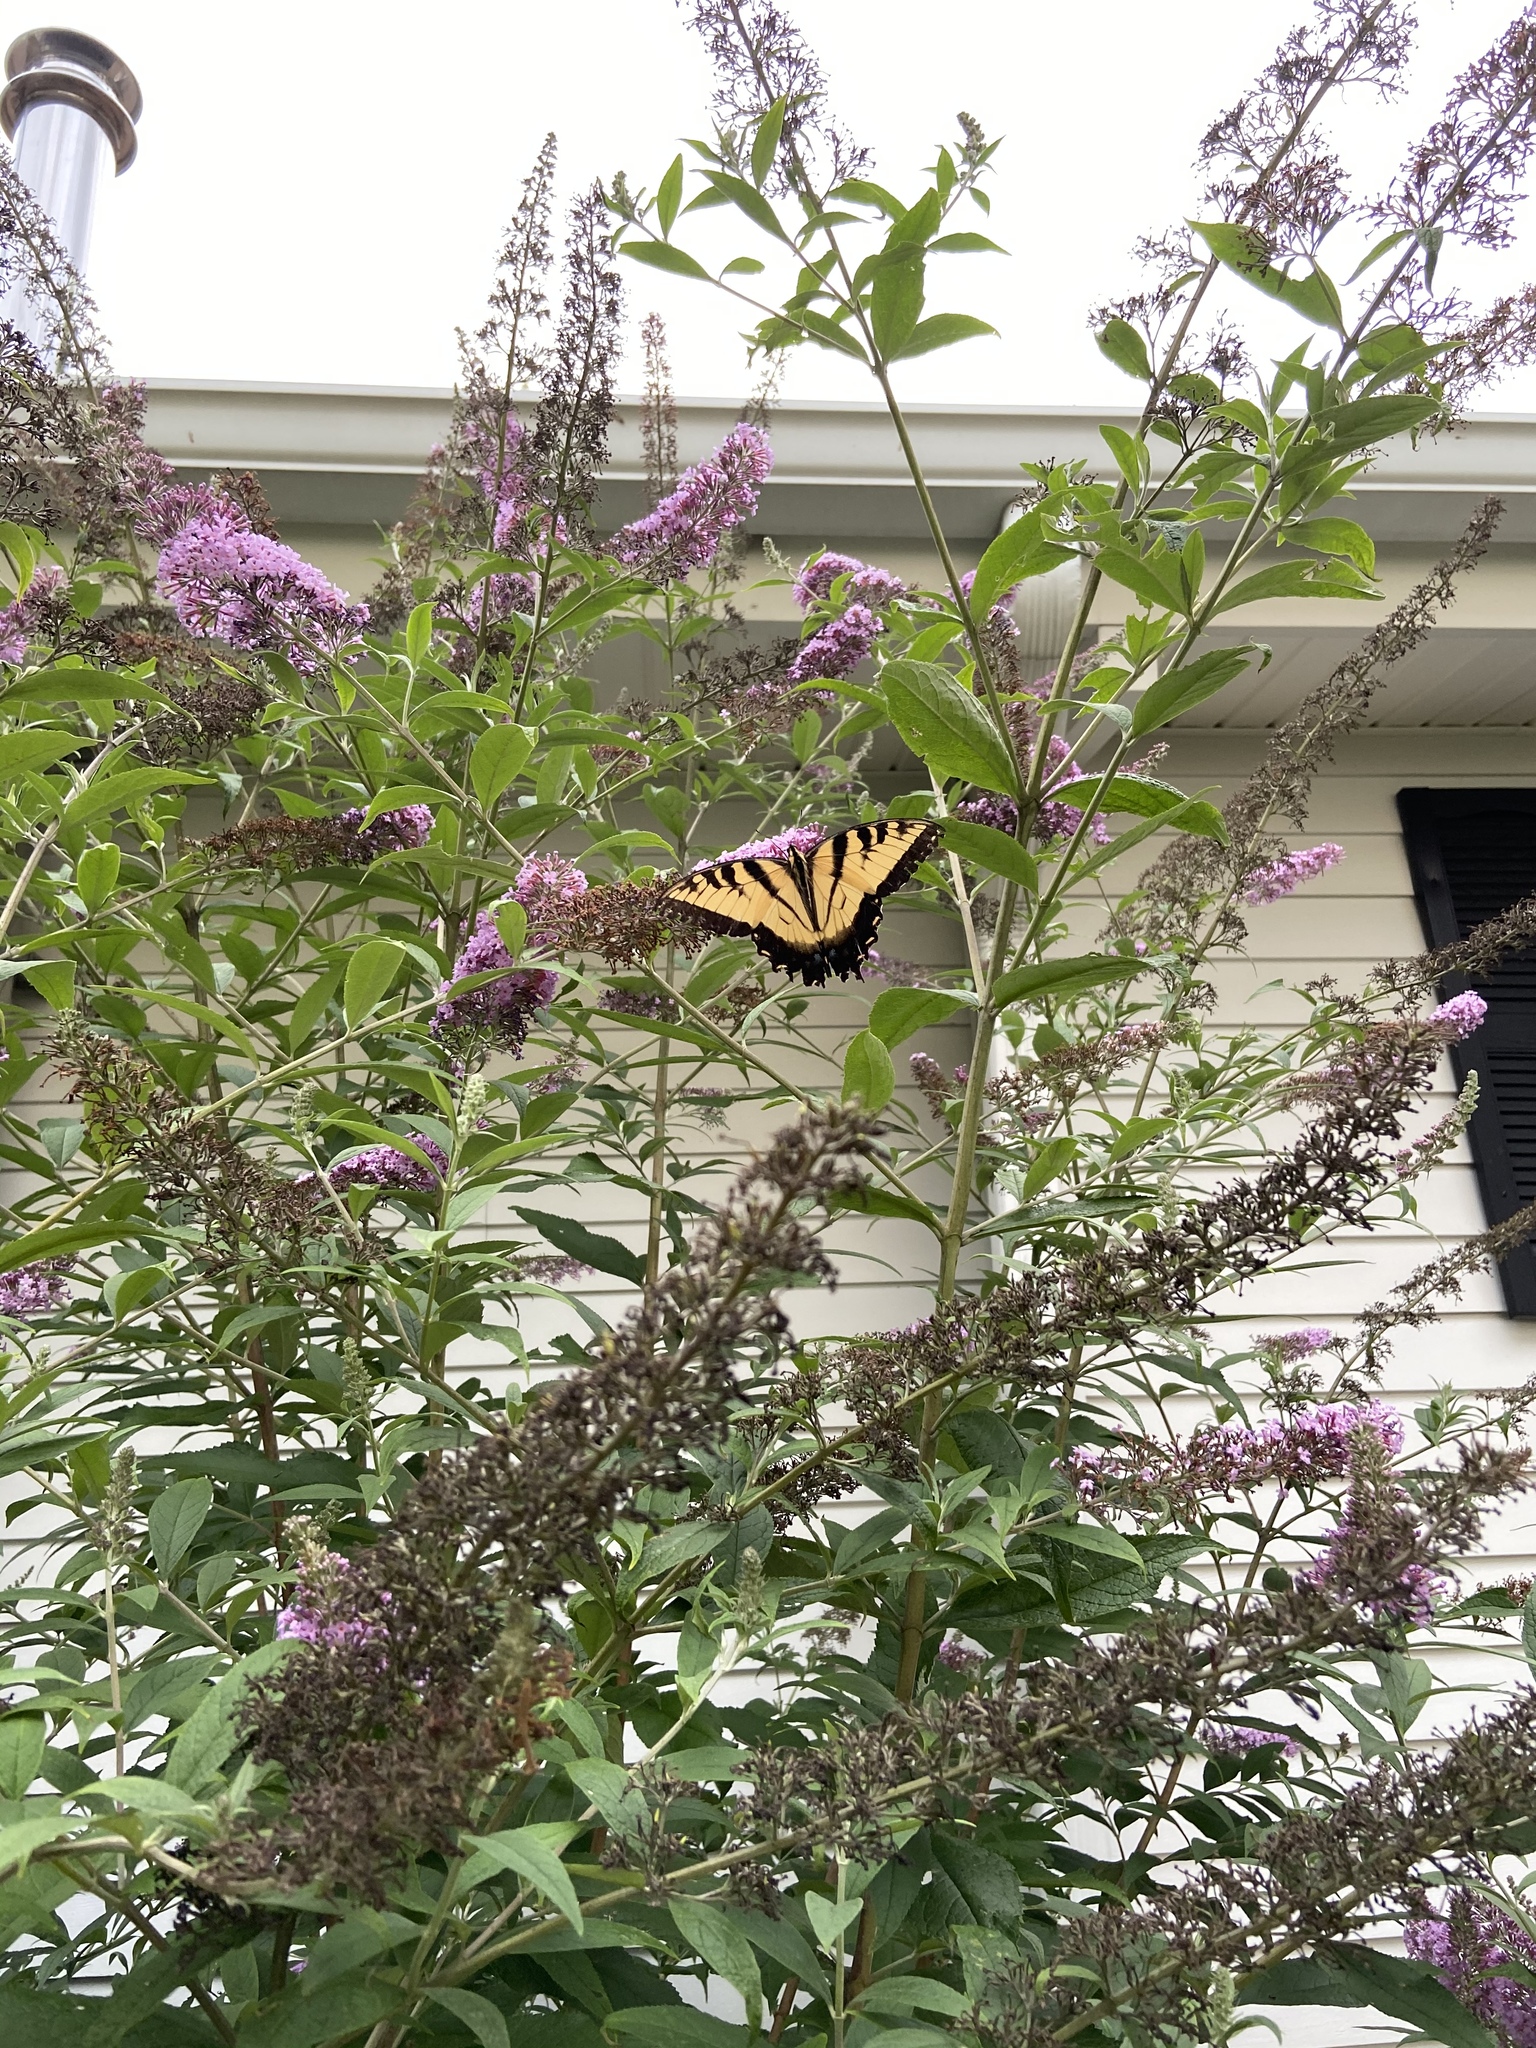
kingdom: Animalia
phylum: Arthropoda
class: Insecta
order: Lepidoptera
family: Papilionidae
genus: Papilio
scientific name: Papilio glaucus
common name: Tiger swallowtail
